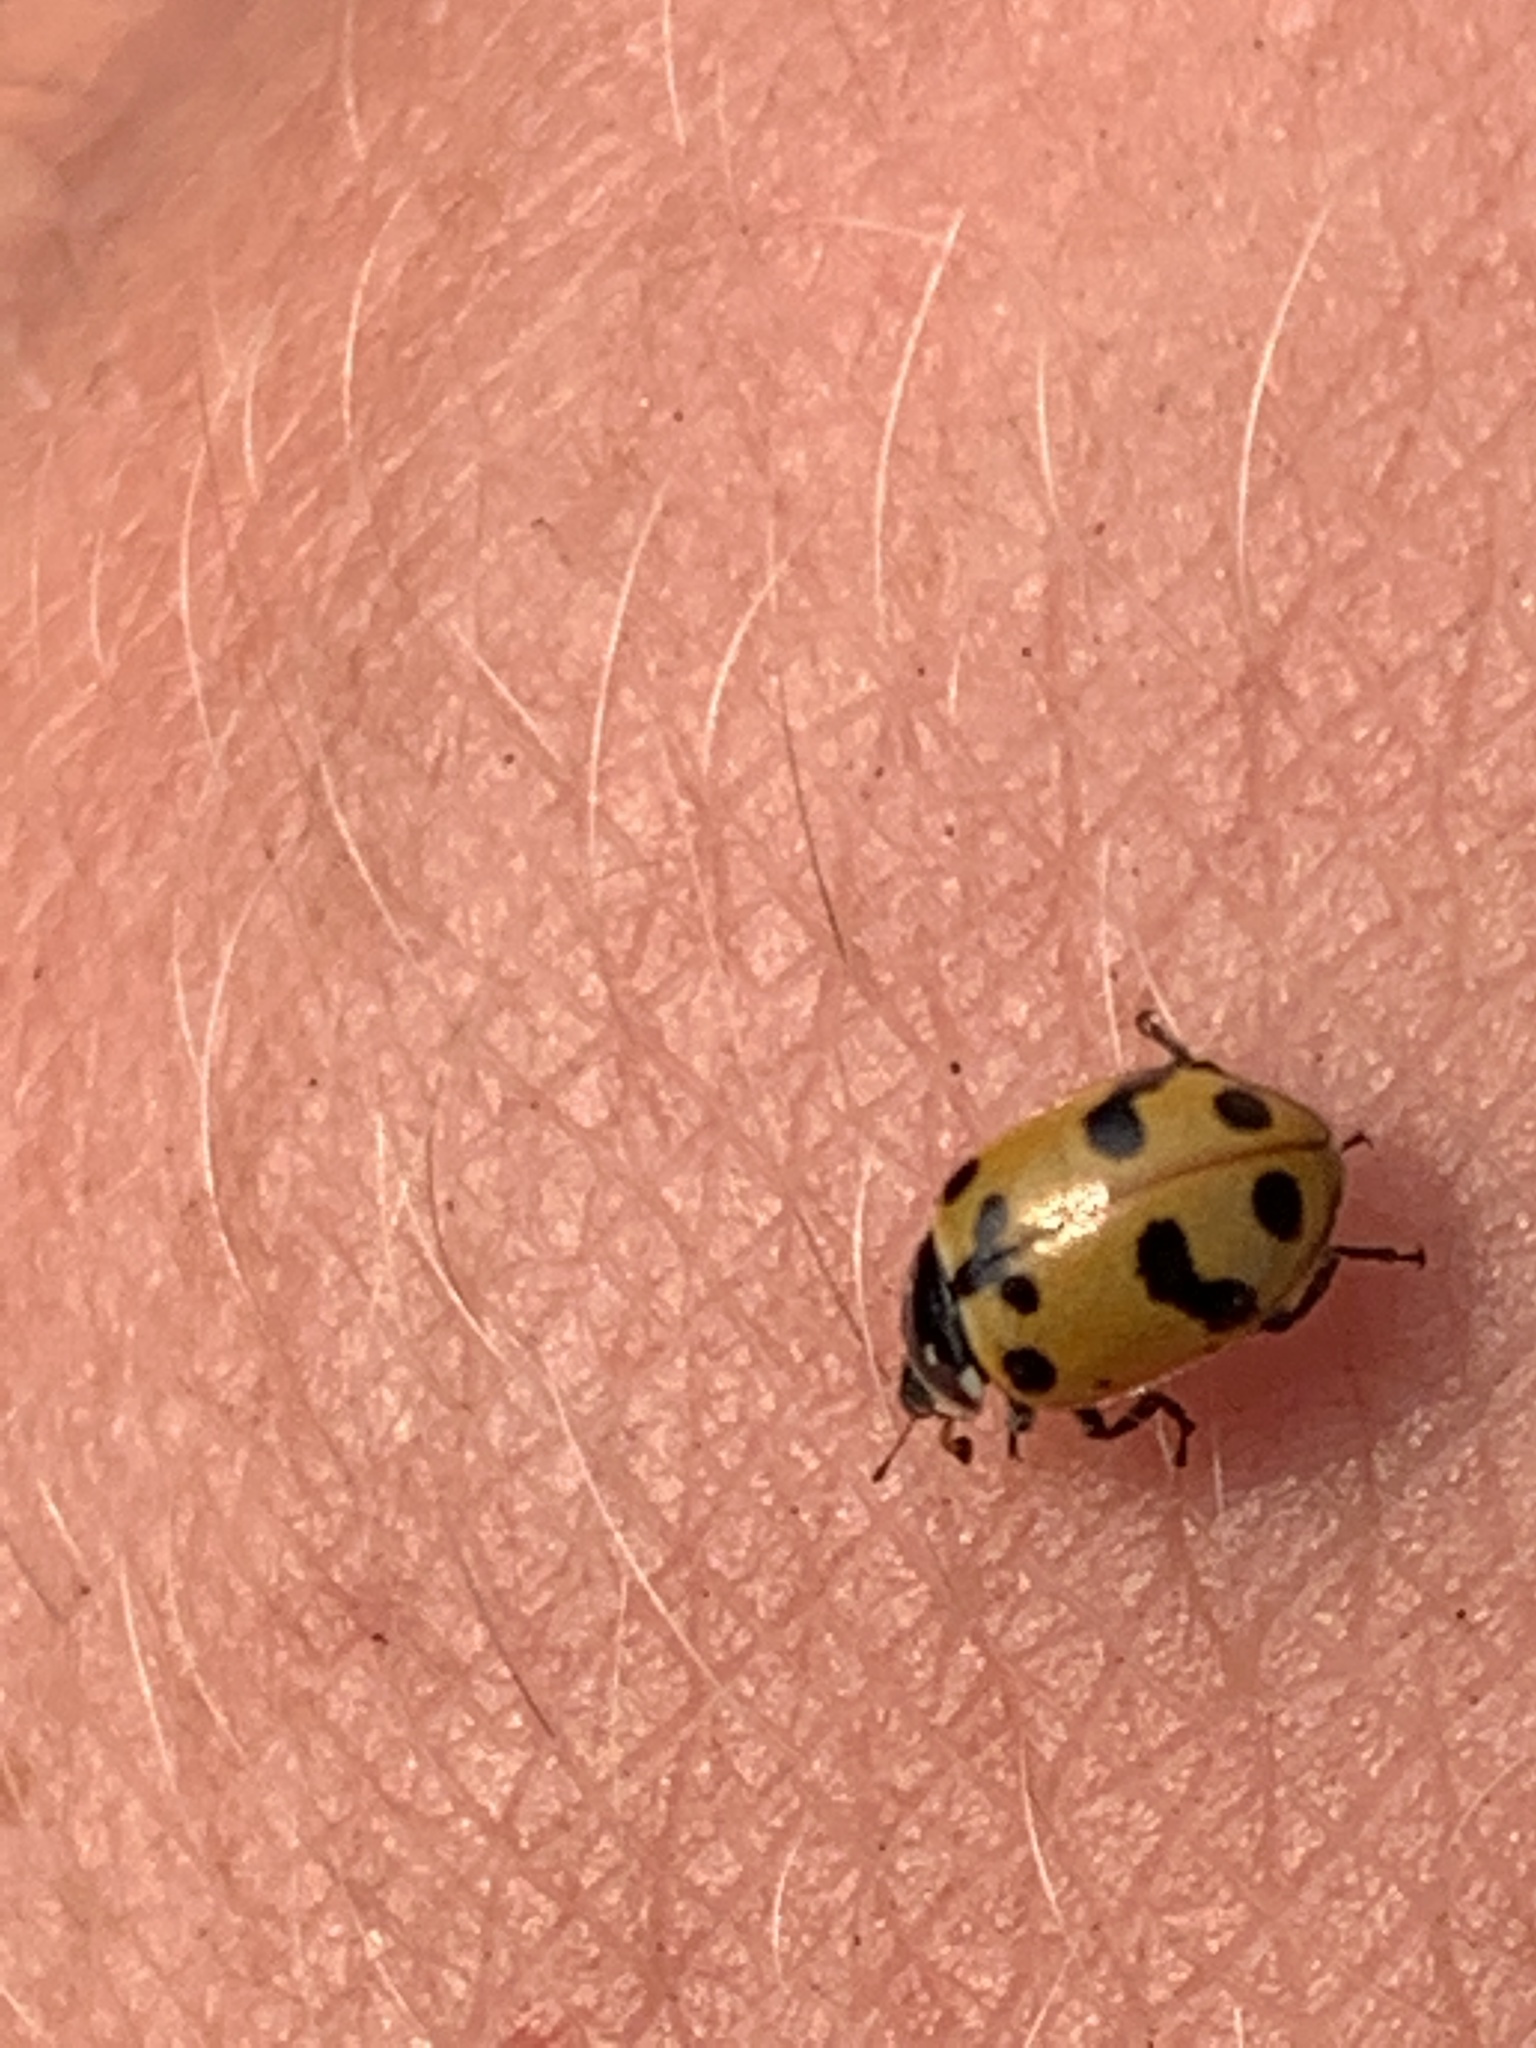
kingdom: Animalia
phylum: Arthropoda
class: Insecta
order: Coleoptera
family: Coccinellidae
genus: Hippodamia
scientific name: Hippodamia caseyi
